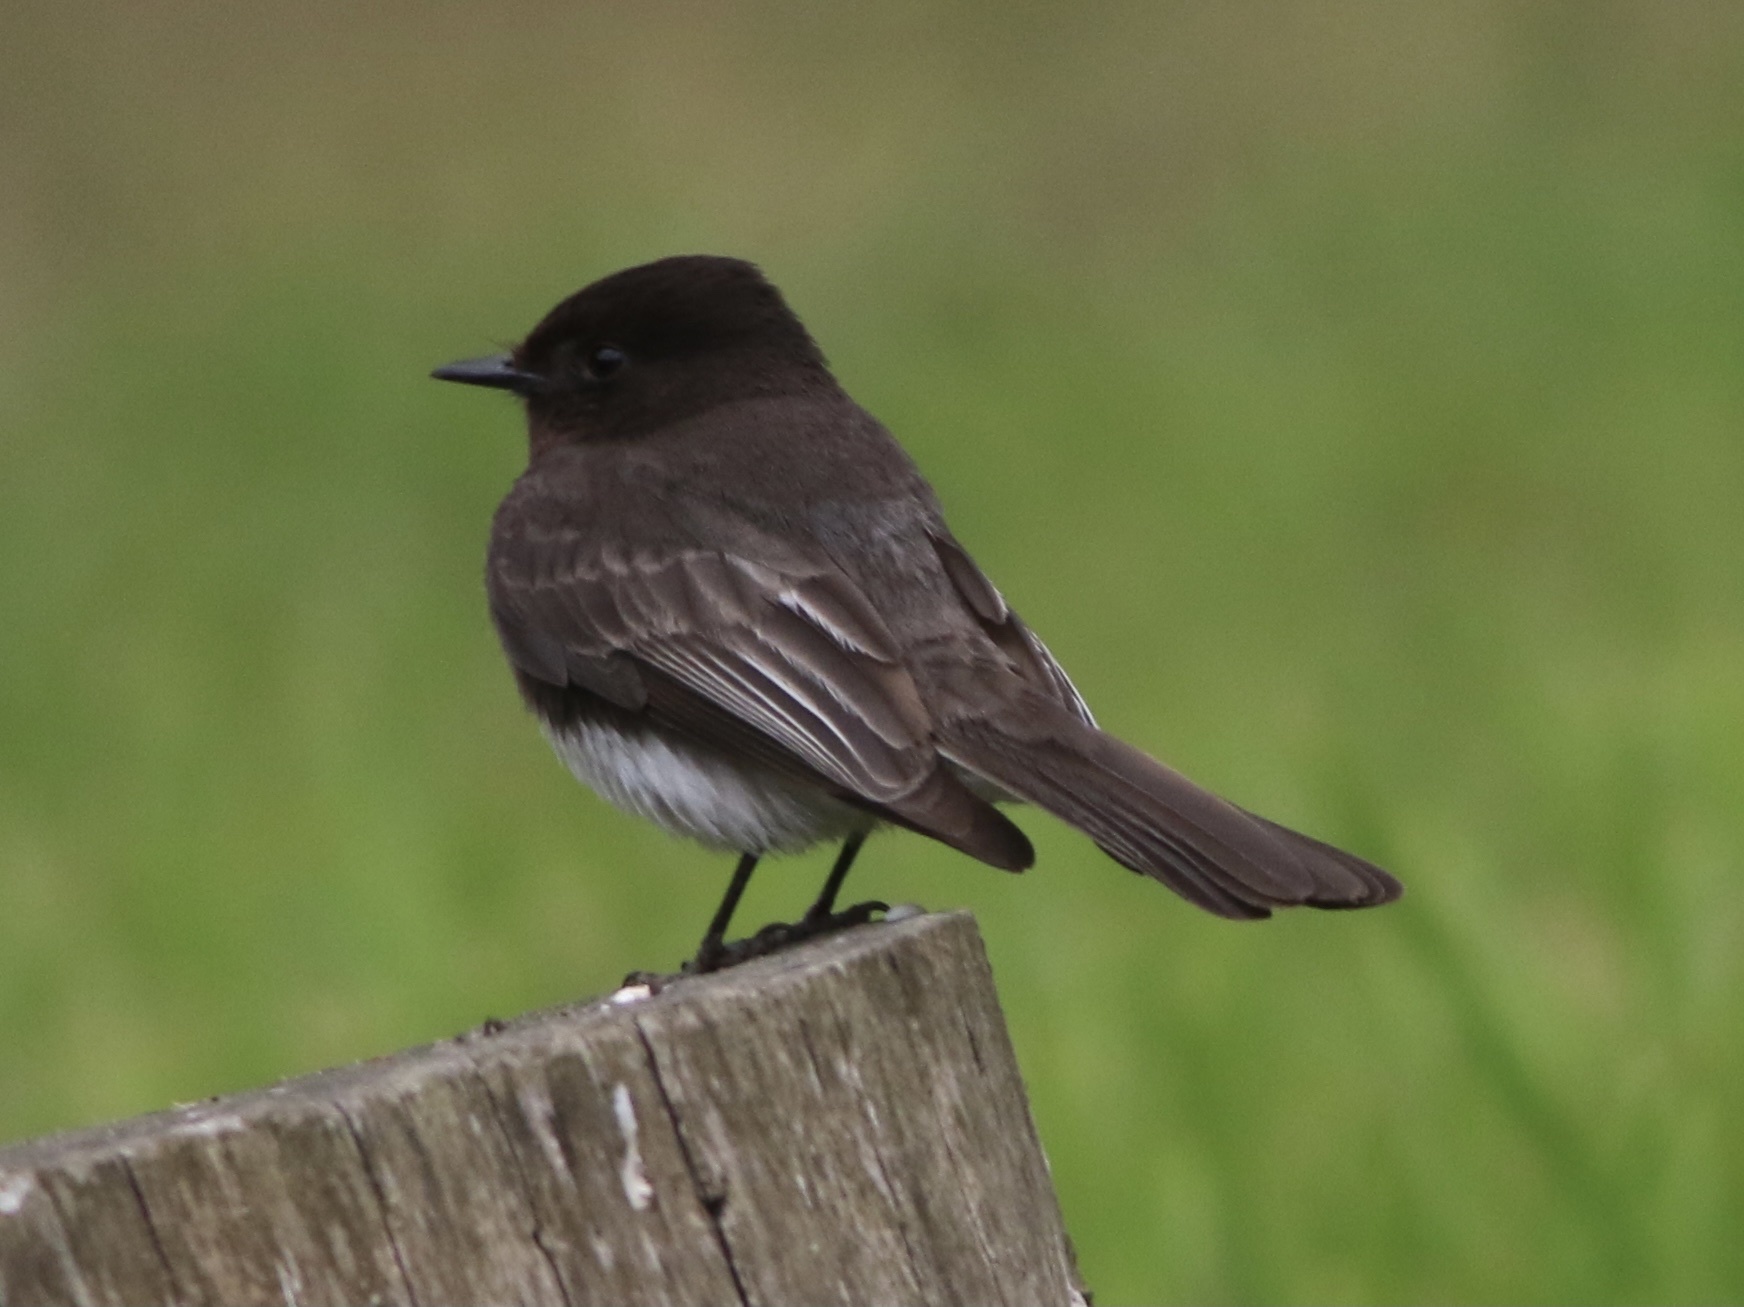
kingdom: Animalia
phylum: Chordata
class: Aves
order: Passeriformes
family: Tyrannidae
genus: Sayornis
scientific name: Sayornis nigricans
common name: Black phoebe
